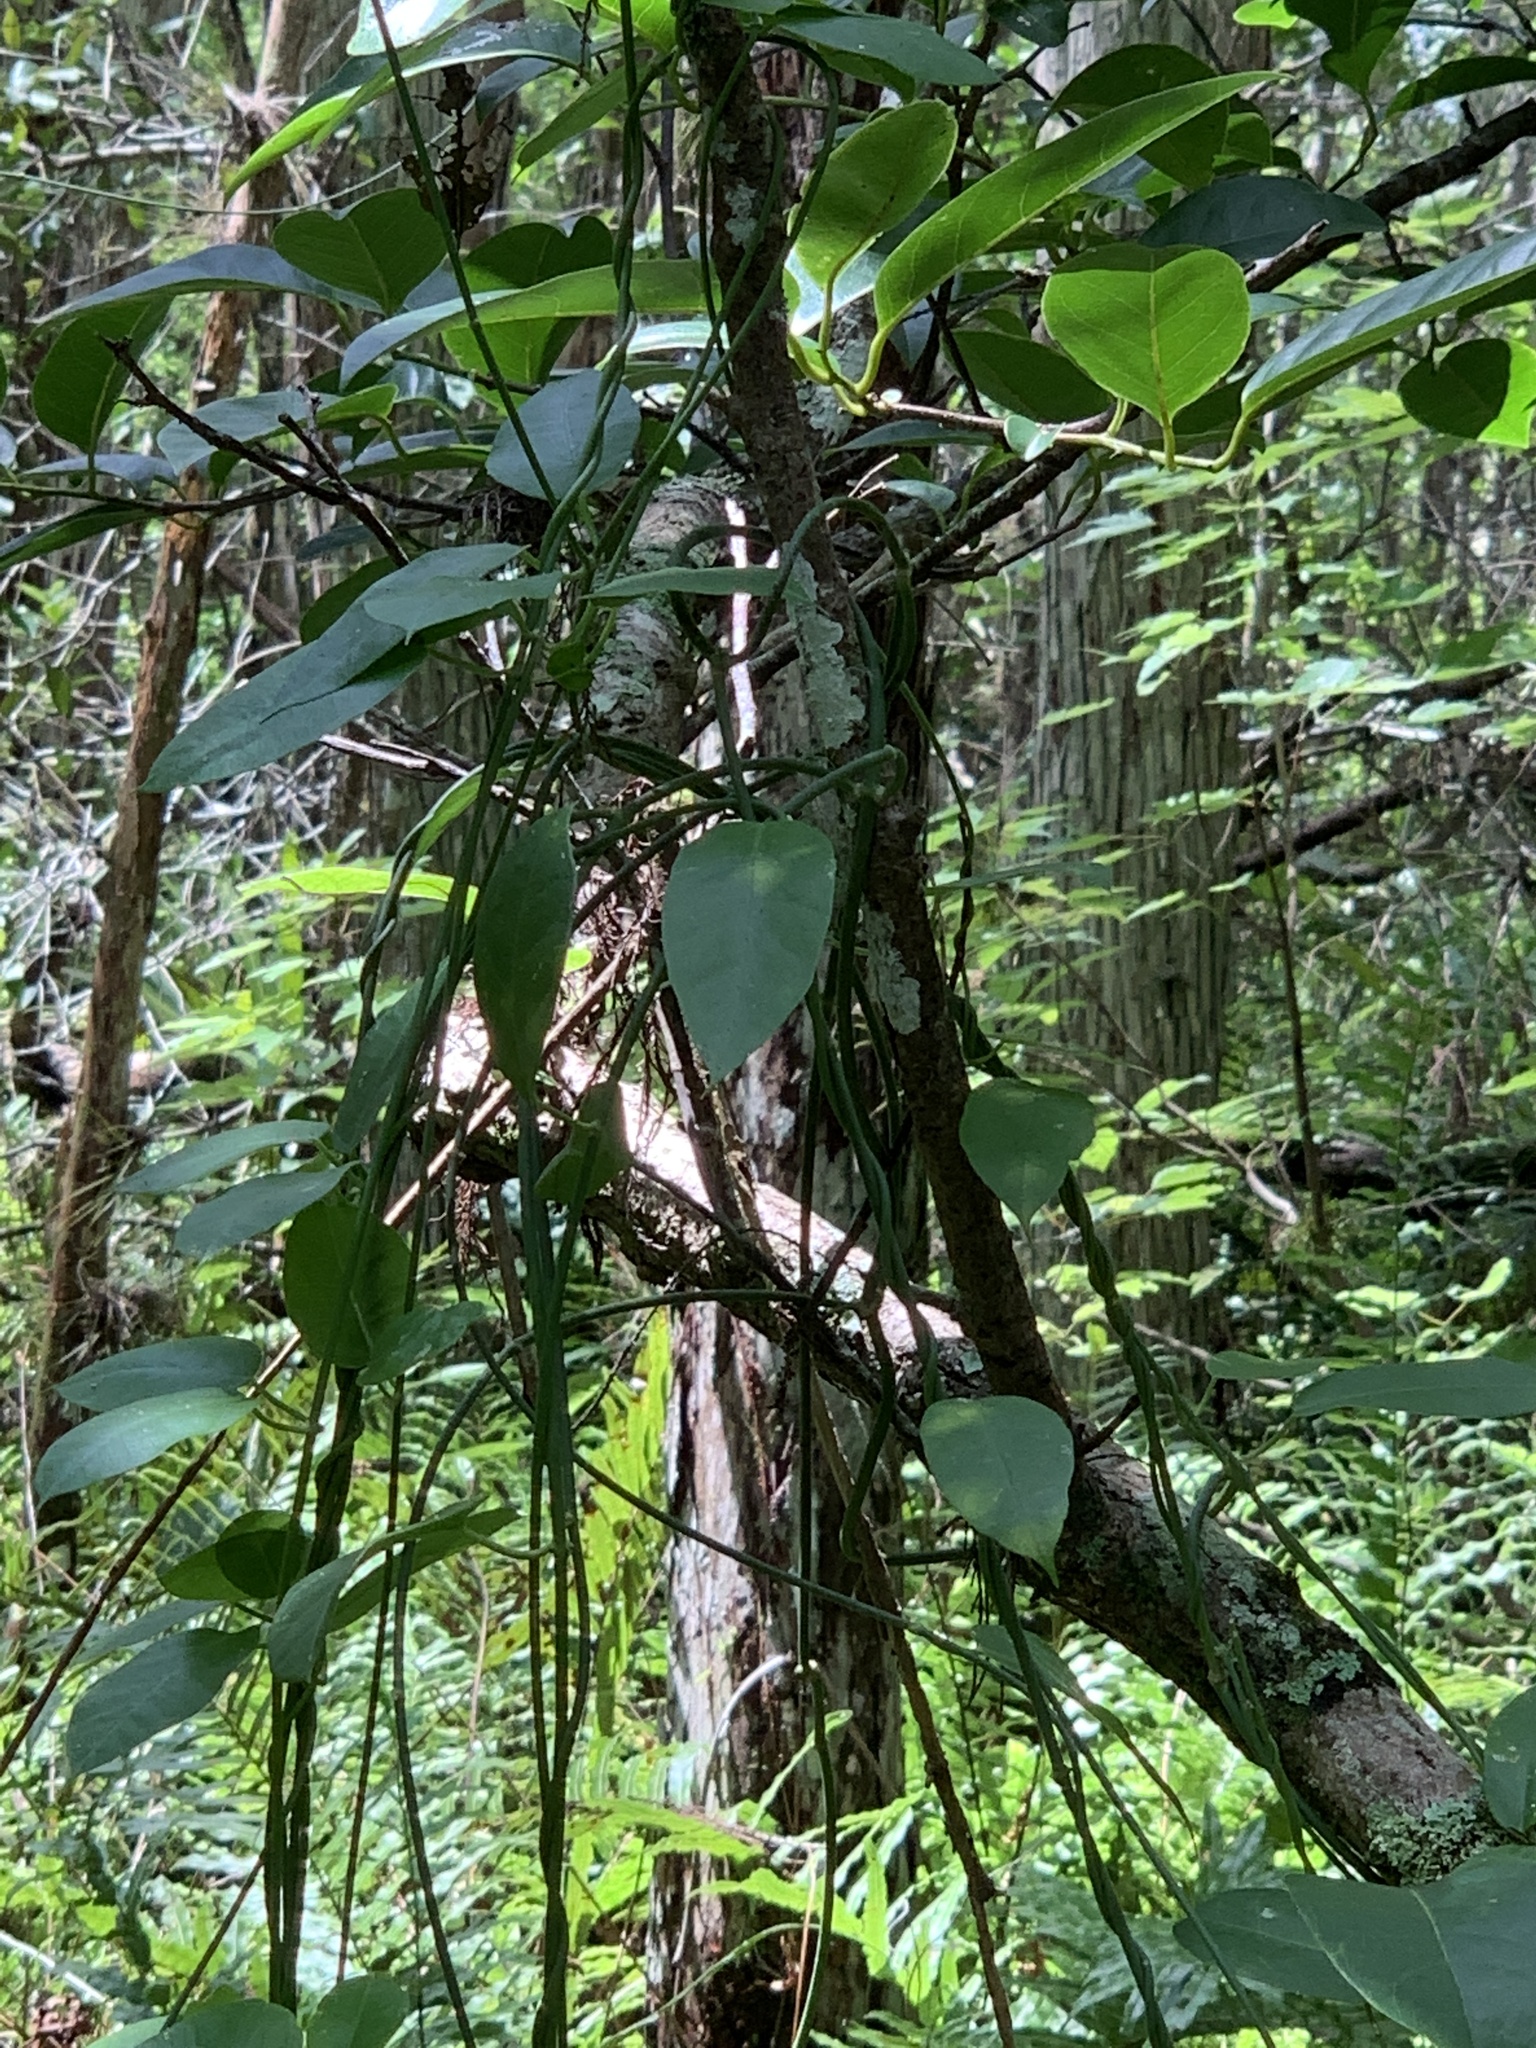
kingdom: Plantae
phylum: Tracheophyta
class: Magnoliopsida
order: Gentianales
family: Apocynaceae
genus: Funastrum
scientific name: Funastrum clausum
